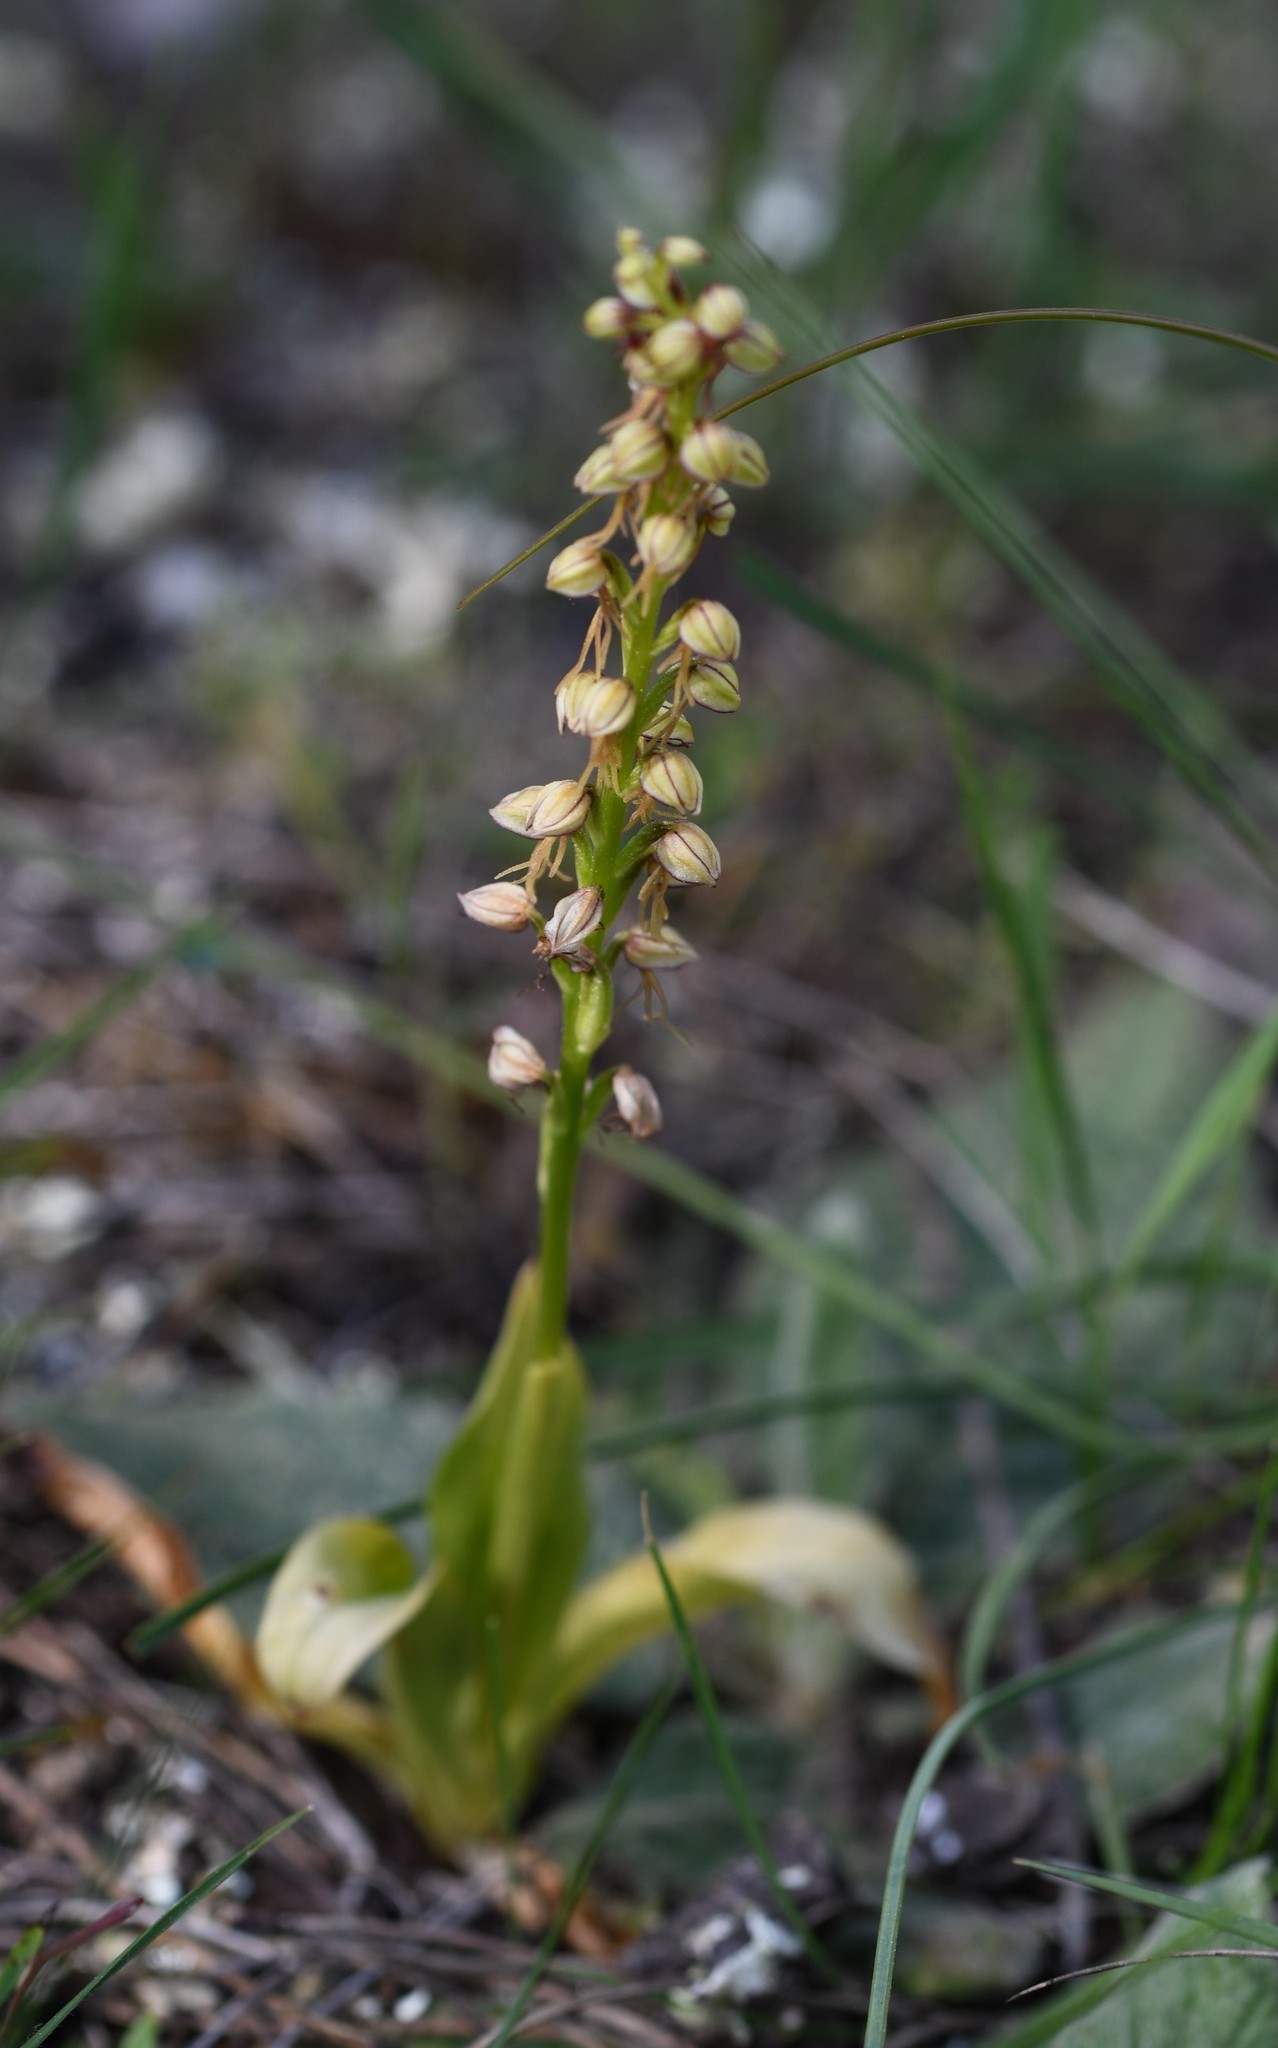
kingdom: Plantae
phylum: Tracheophyta
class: Liliopsida
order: Asparagales
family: Orchidaceae
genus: Orchis
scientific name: Orchis anthropophora
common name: Man orchid
